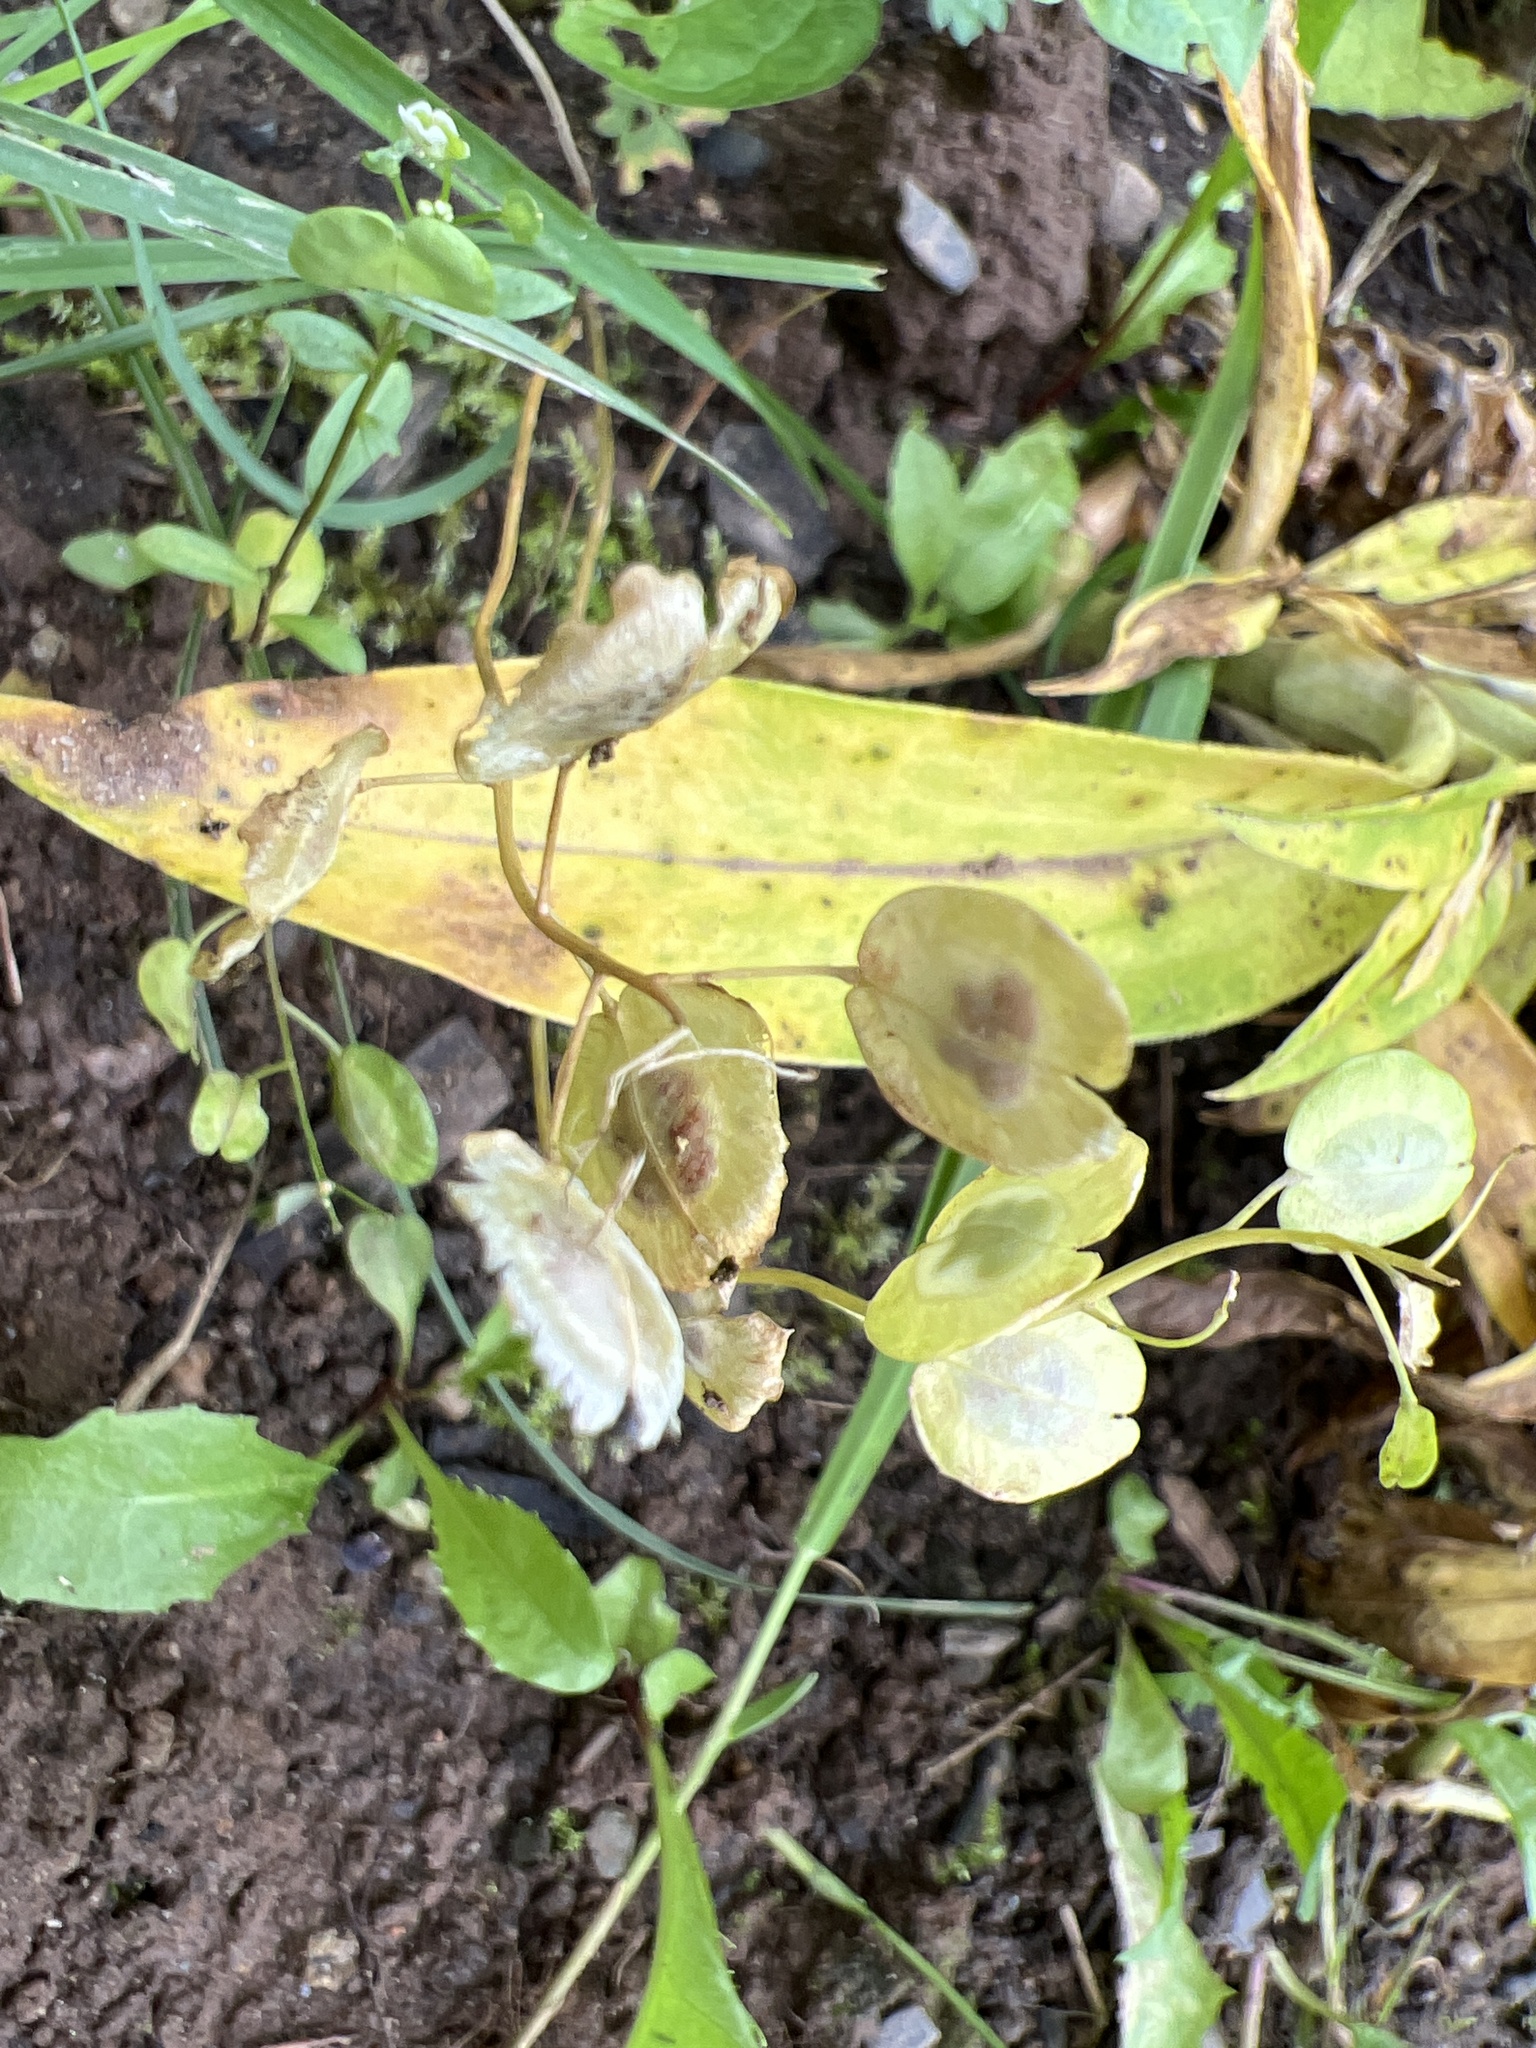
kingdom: Plantae
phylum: Tracheophyta
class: Magnoliopsida
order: Brassicales
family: Brassicaceae
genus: Thlaspi
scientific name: Thlaspi arvense
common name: Field pennycress
